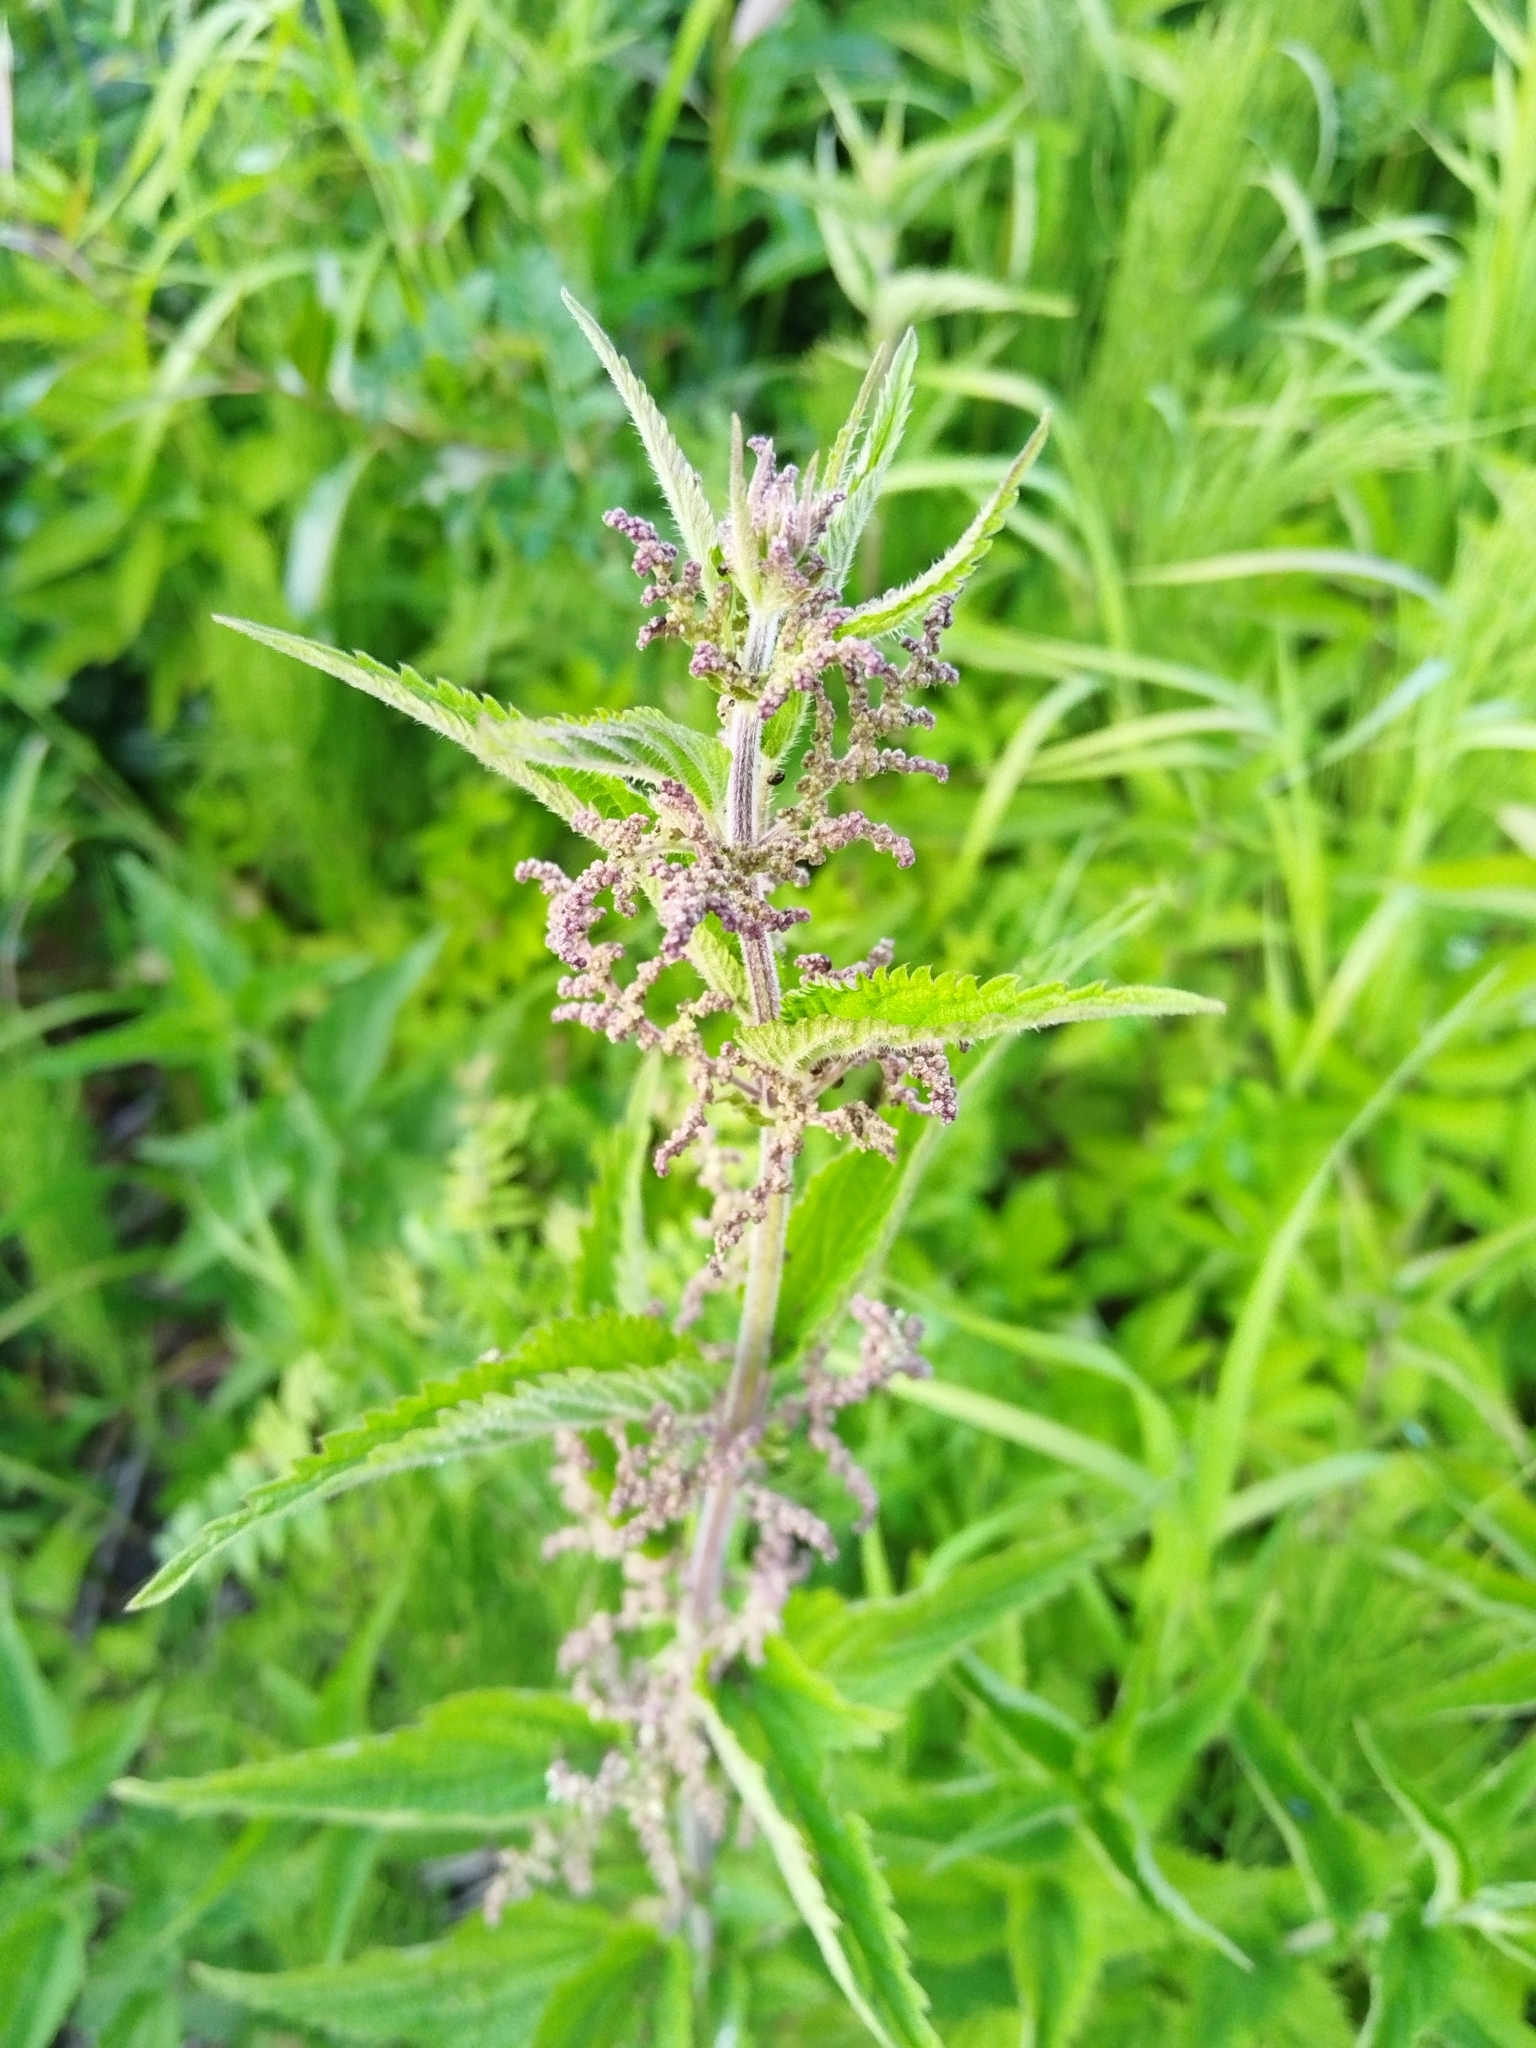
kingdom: Plantae
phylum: Tracheophyta
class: Magnoliopsida
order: Rosales
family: Urticaceae
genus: Urtica
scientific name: Urtica dioica
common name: Common nettle
